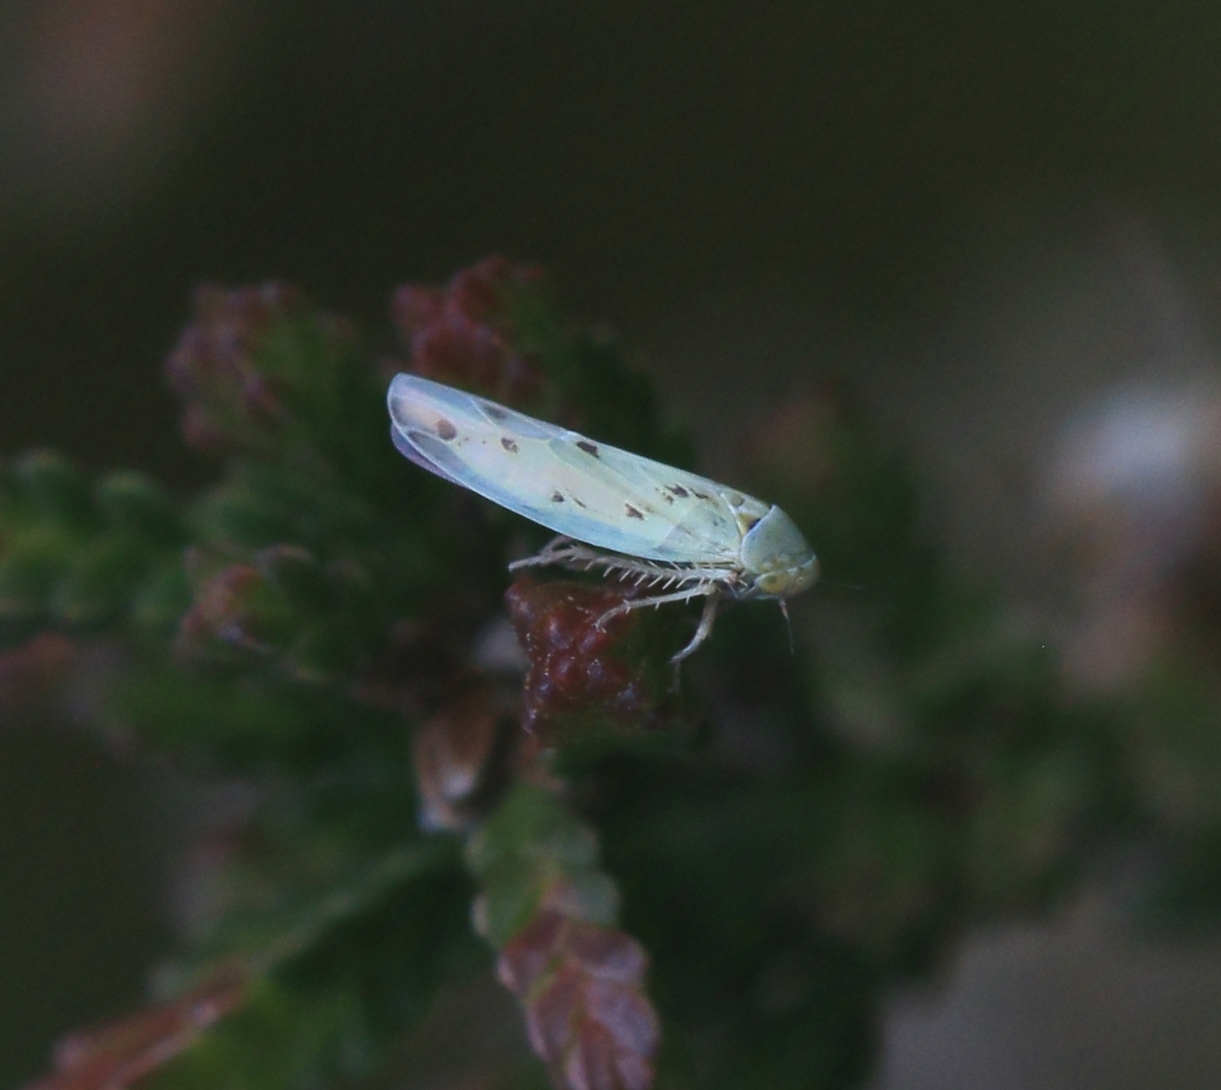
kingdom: Animalia
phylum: Arthropoda
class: Insecta
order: Hemiptera
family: Cicadellidae
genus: Balclutha
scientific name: Balclutha punctata
